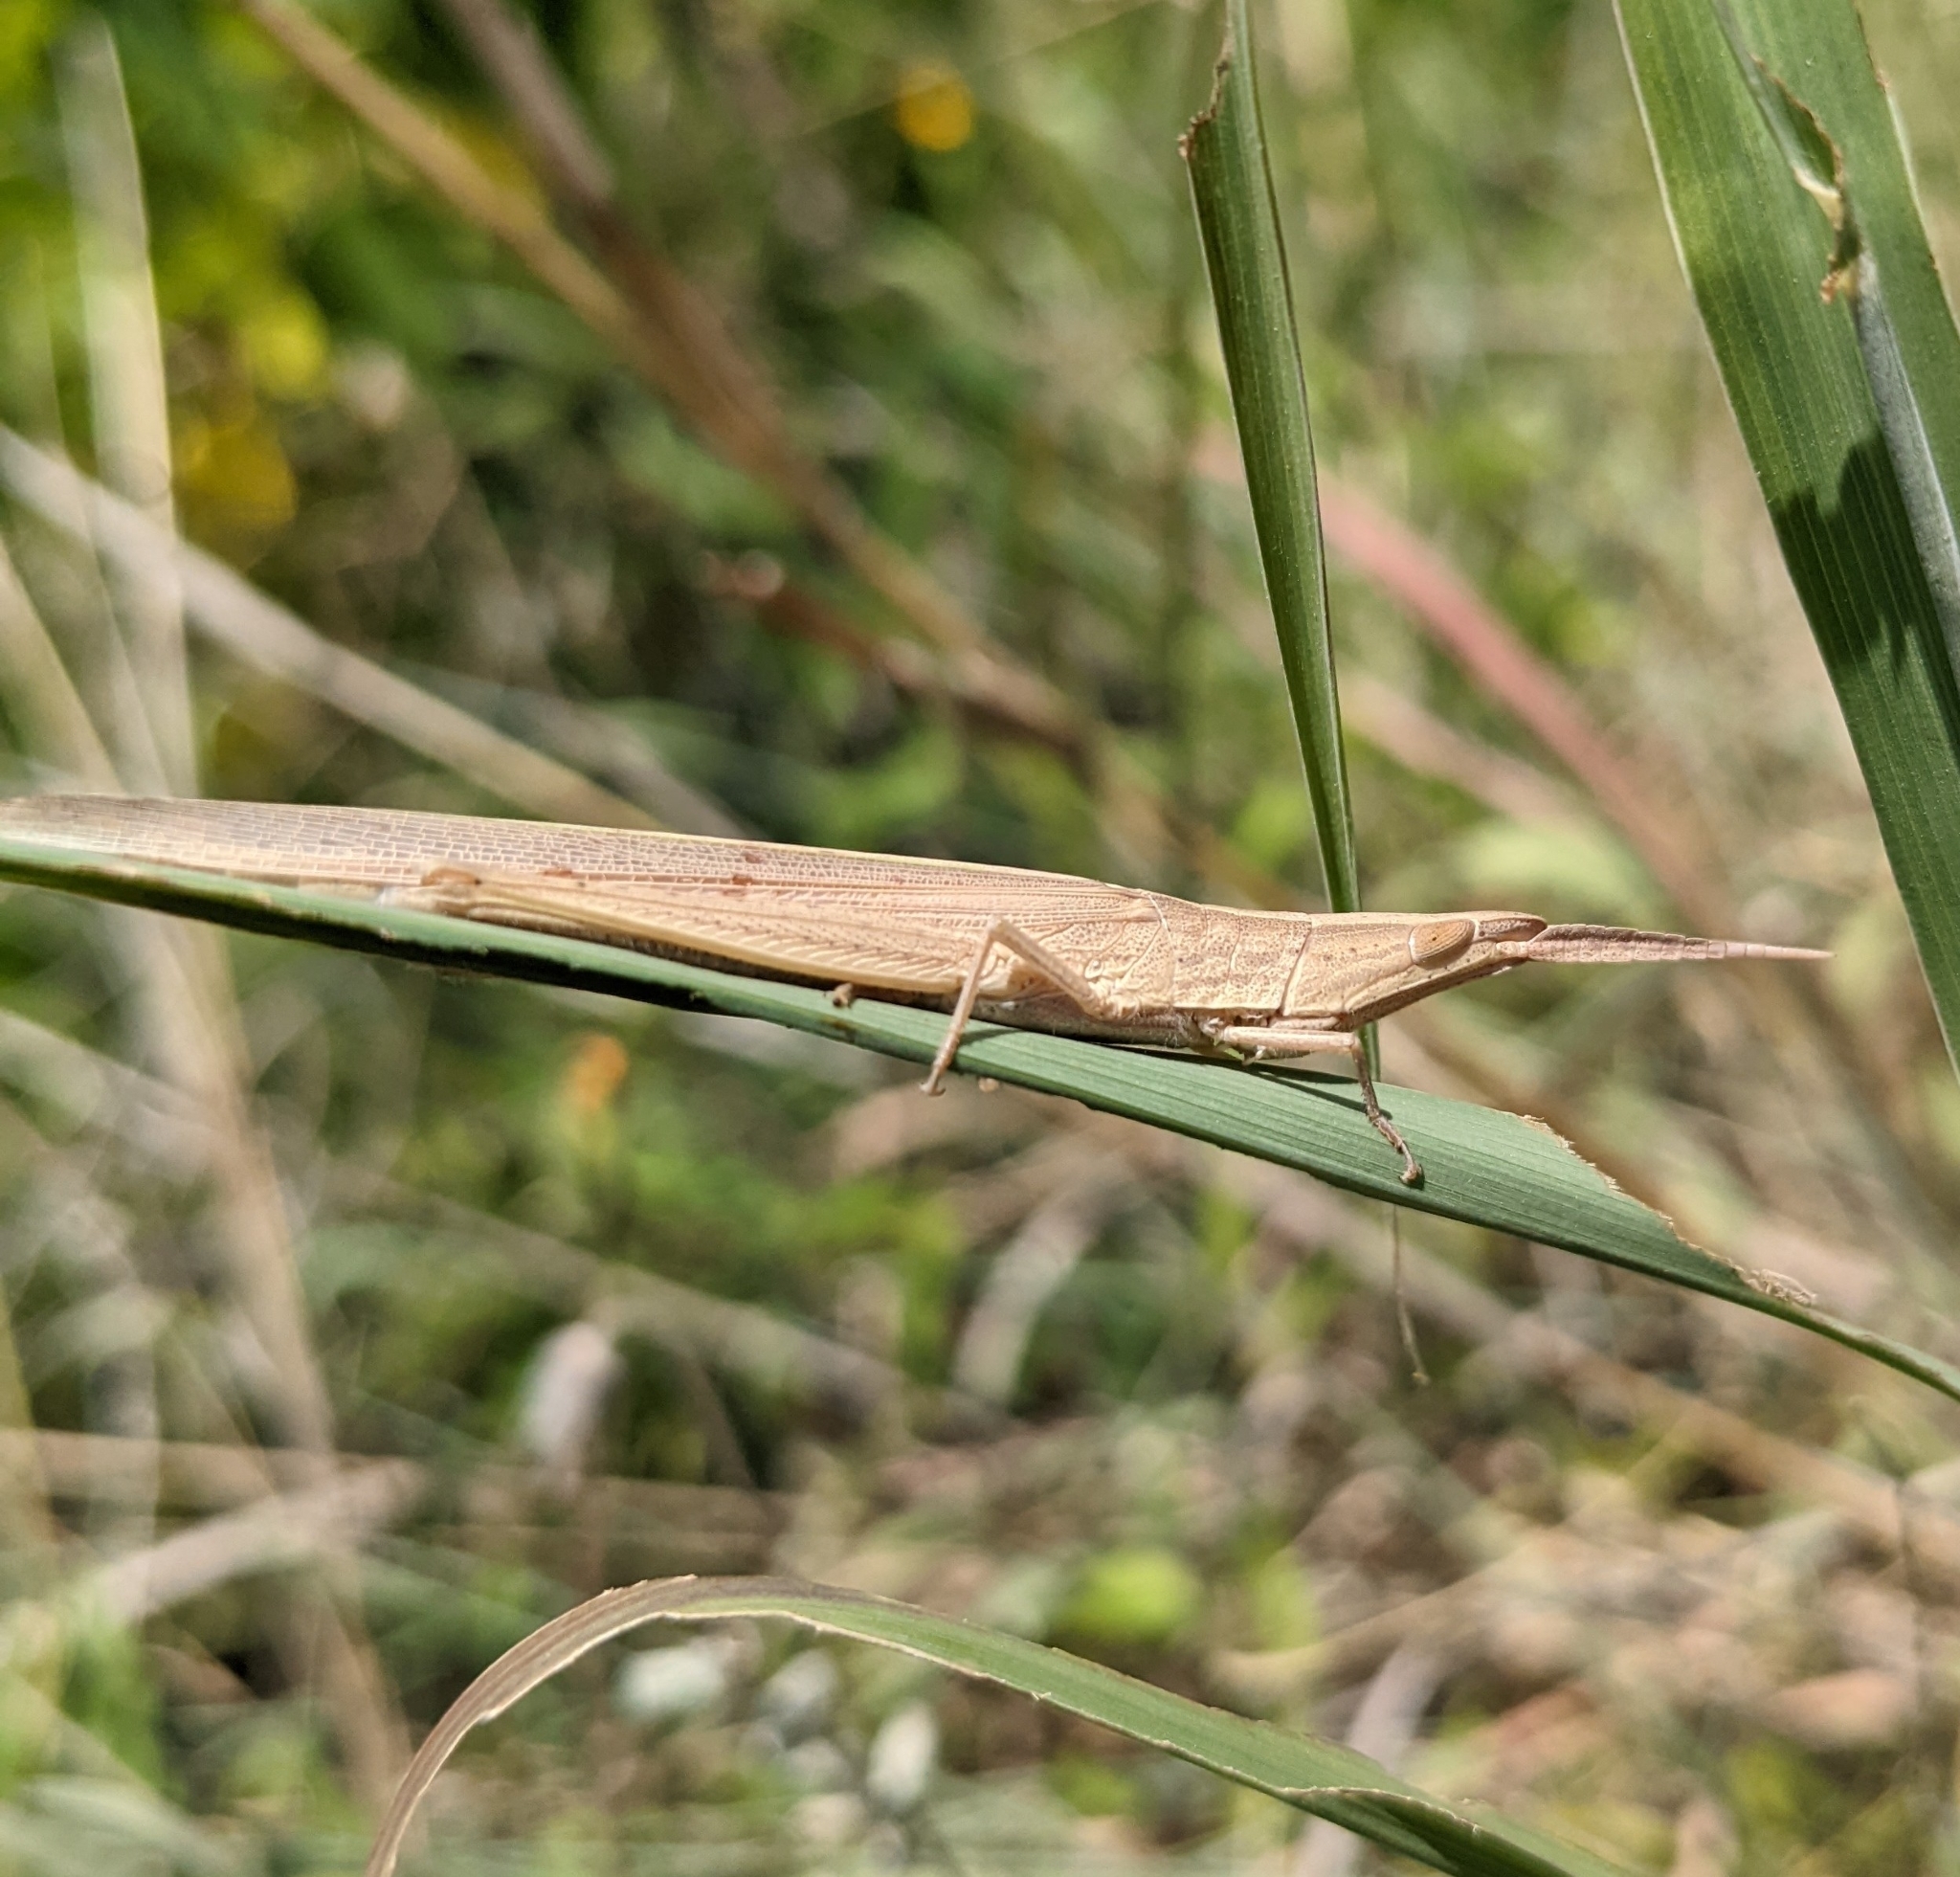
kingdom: Animalia
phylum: Arthropoda
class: Insecta
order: Orthoptera
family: Acrididae
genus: Achurum
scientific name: Achurum sumichrasti
